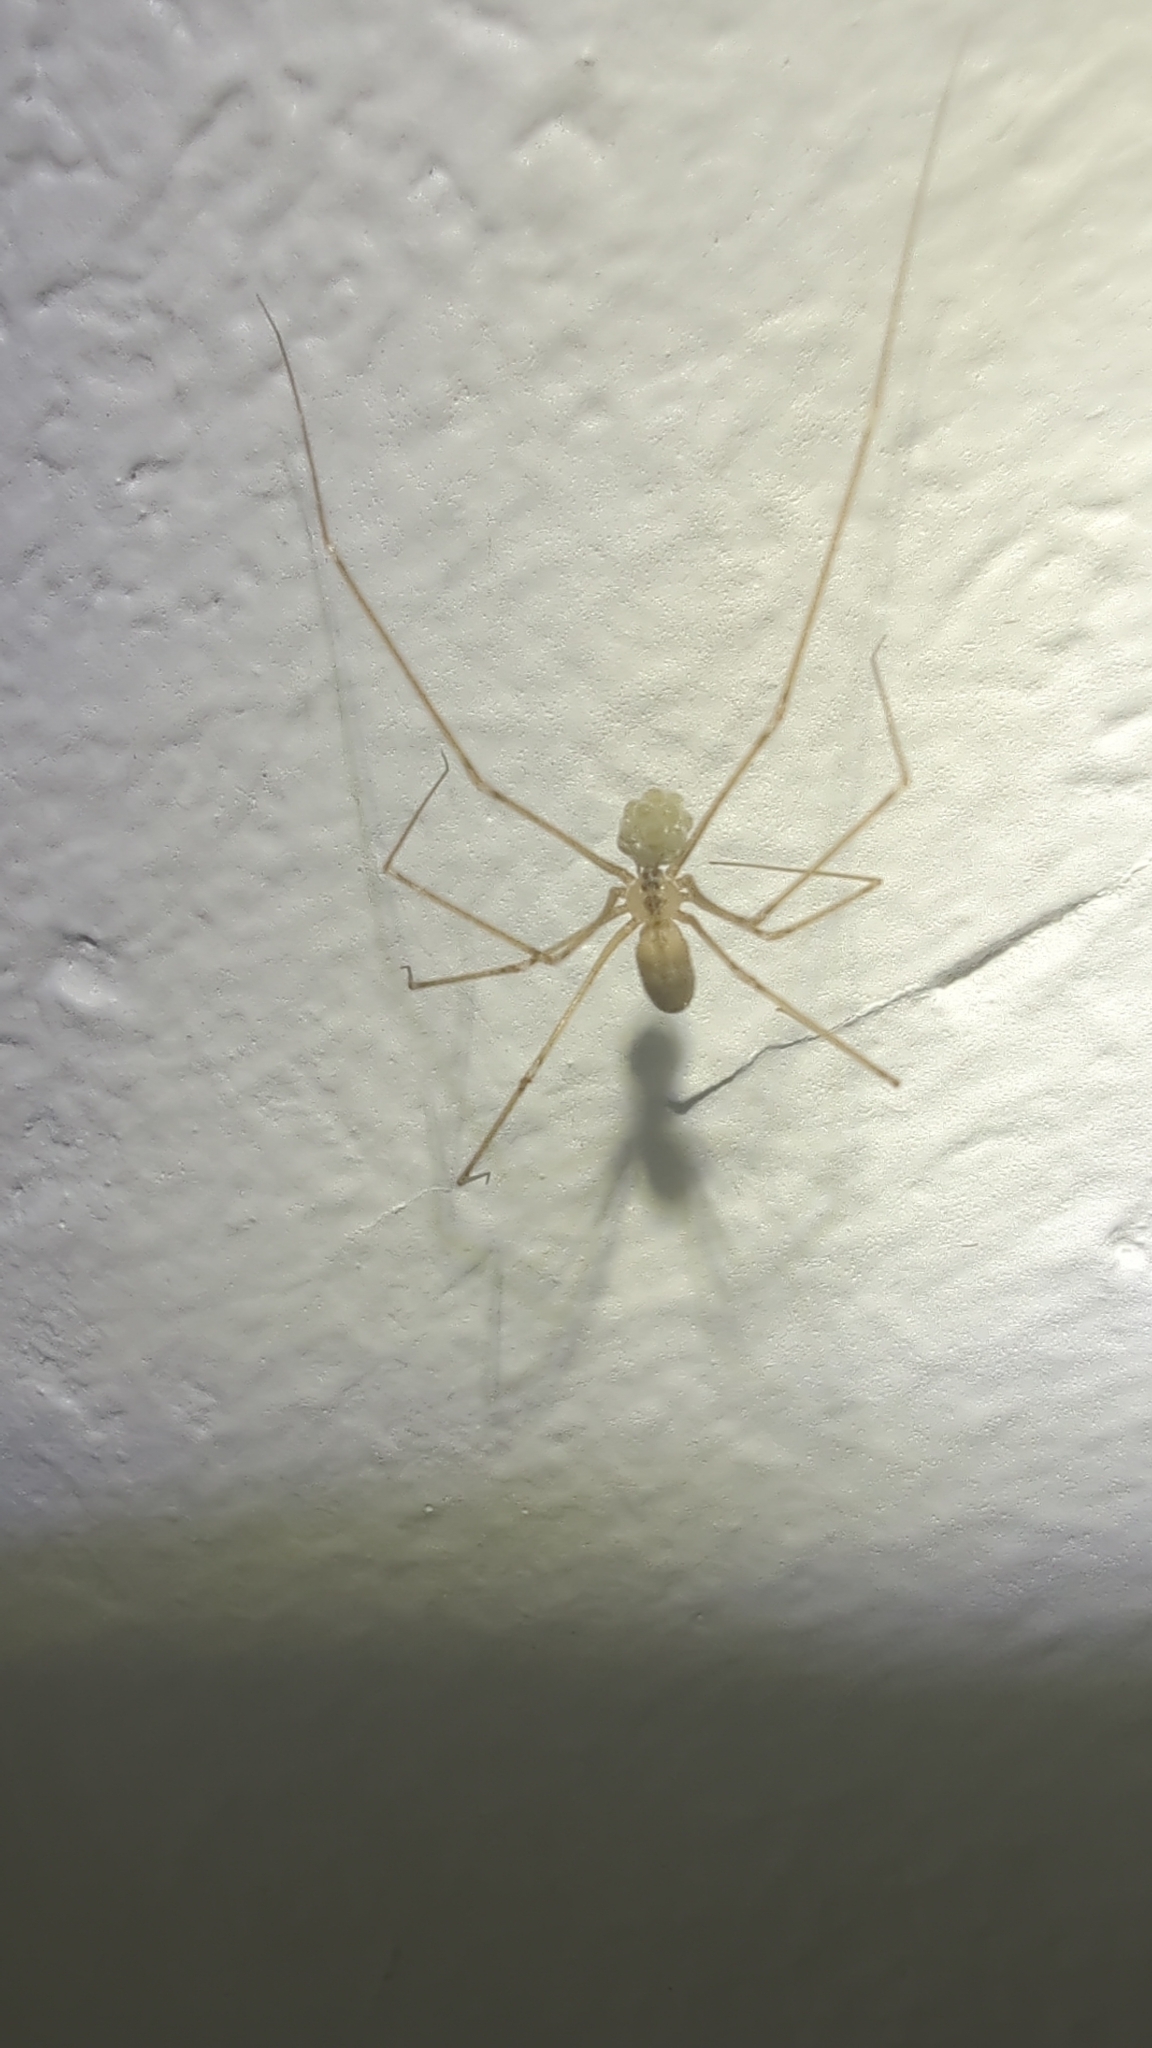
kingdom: Animalia
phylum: Arthropoda
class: Arachnida
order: Araneae
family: Pholcidae
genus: Pholcus
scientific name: Pholcus phalangioides
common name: Longbodied cellar spider
